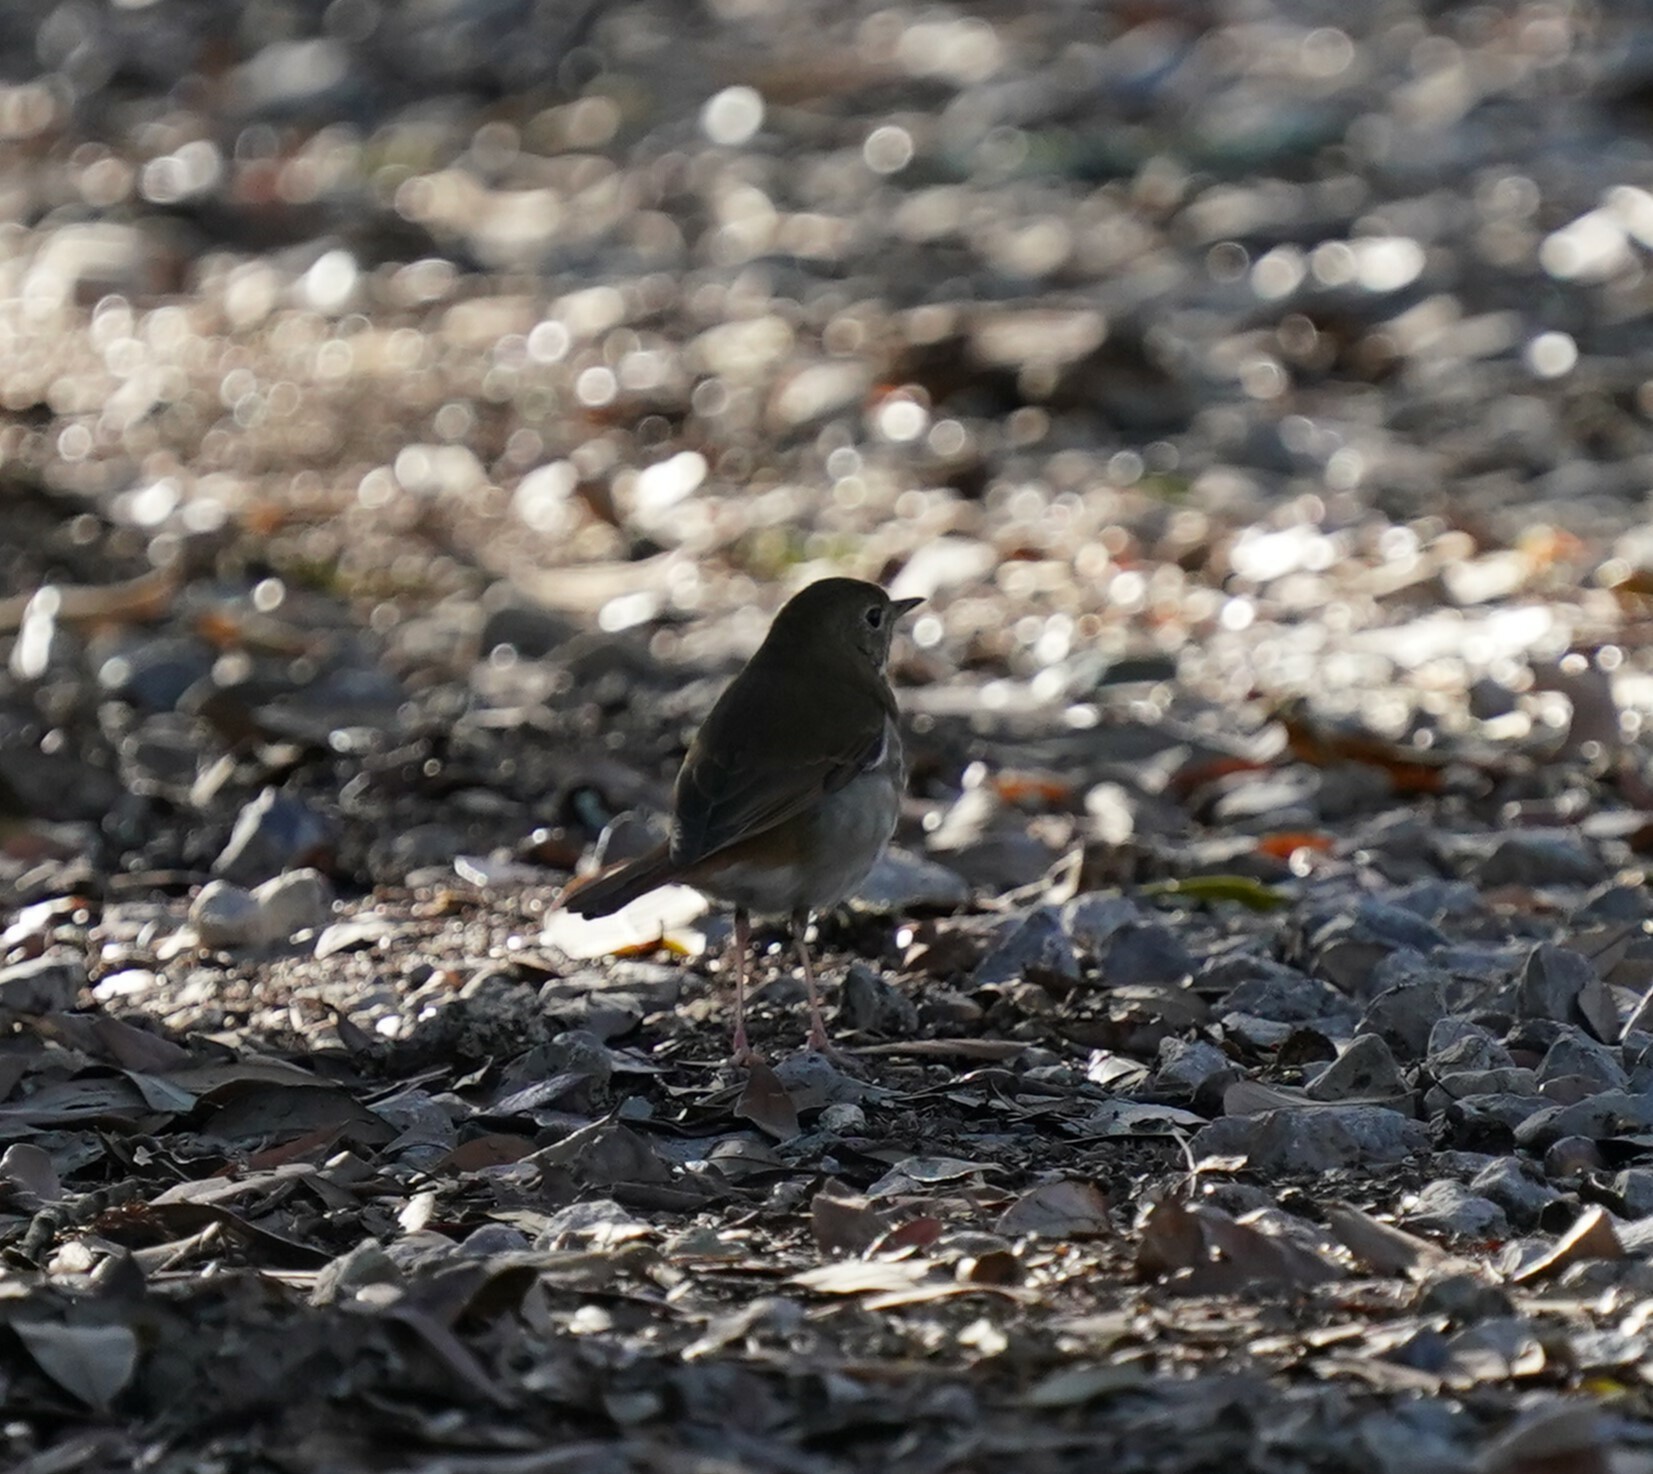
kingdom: Animalia
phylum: Chordata
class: Aves
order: Passeriformes
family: Turdidae
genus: Catharus
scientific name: Catharus guttatus
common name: Hermit thrush
